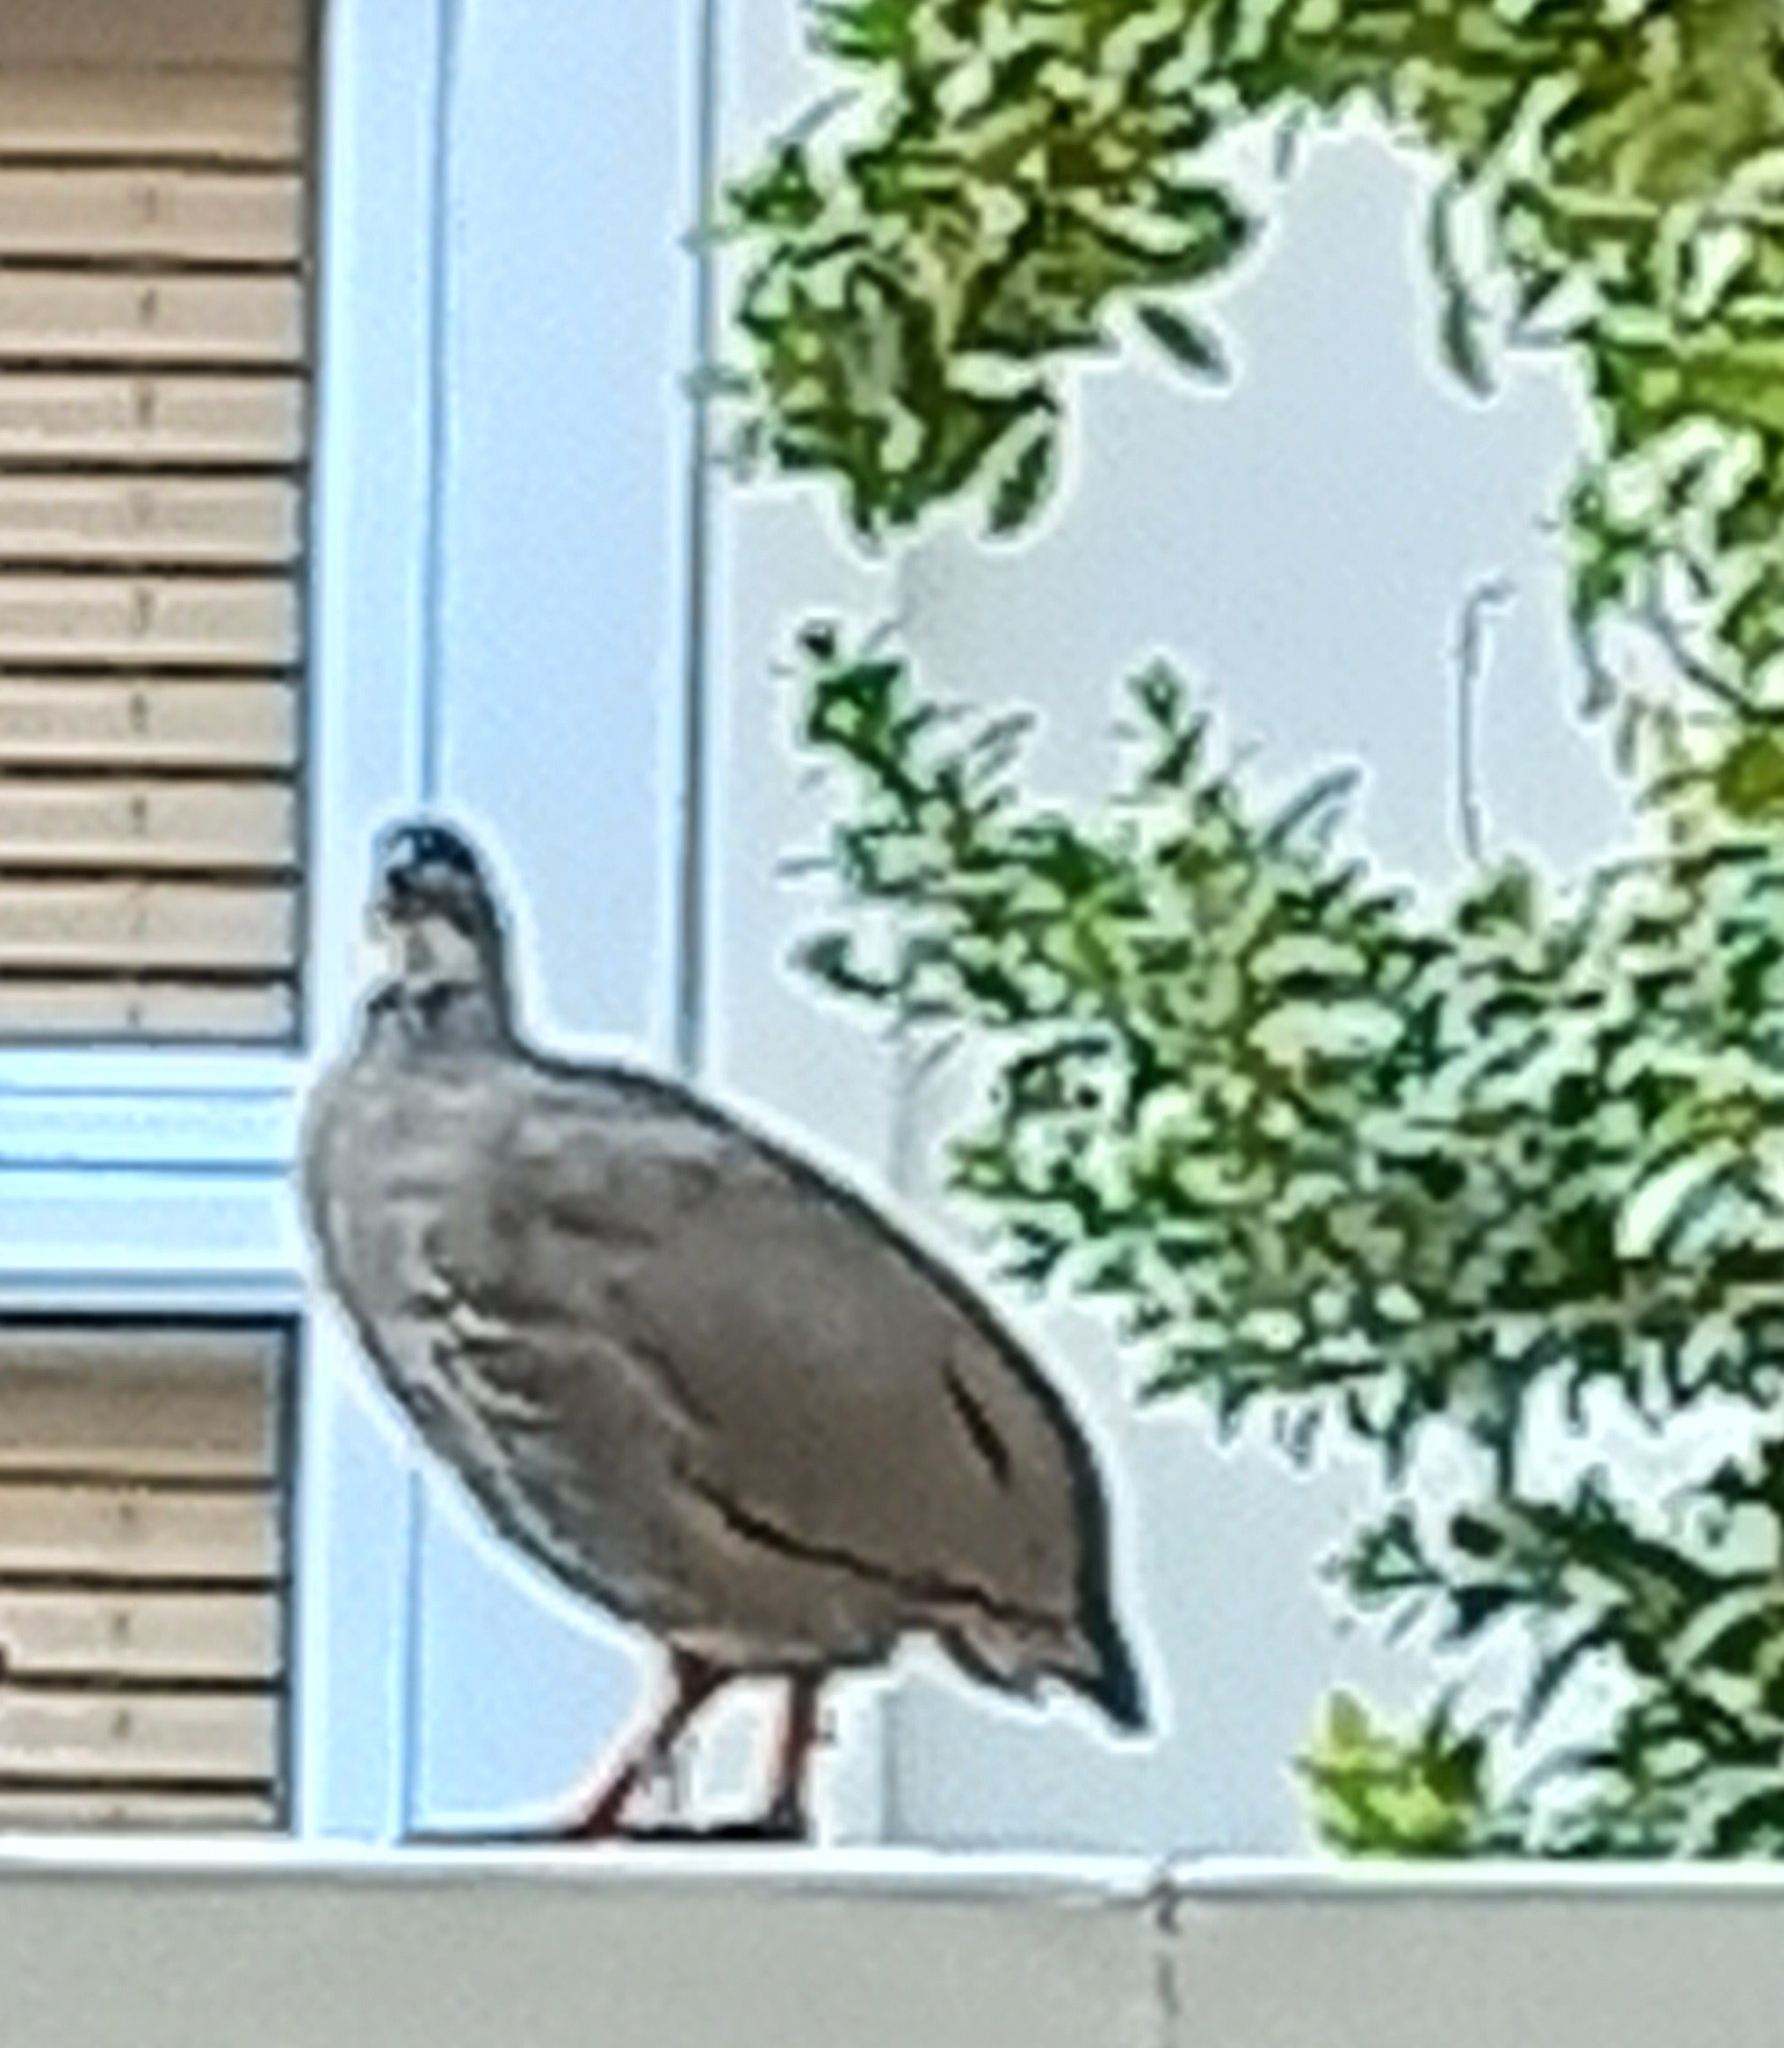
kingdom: Animalia
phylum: Chordata
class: Aves
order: Galliformes
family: Phasianidae
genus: Pternistis
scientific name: Pternistis capensis
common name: Cape spurfowl
